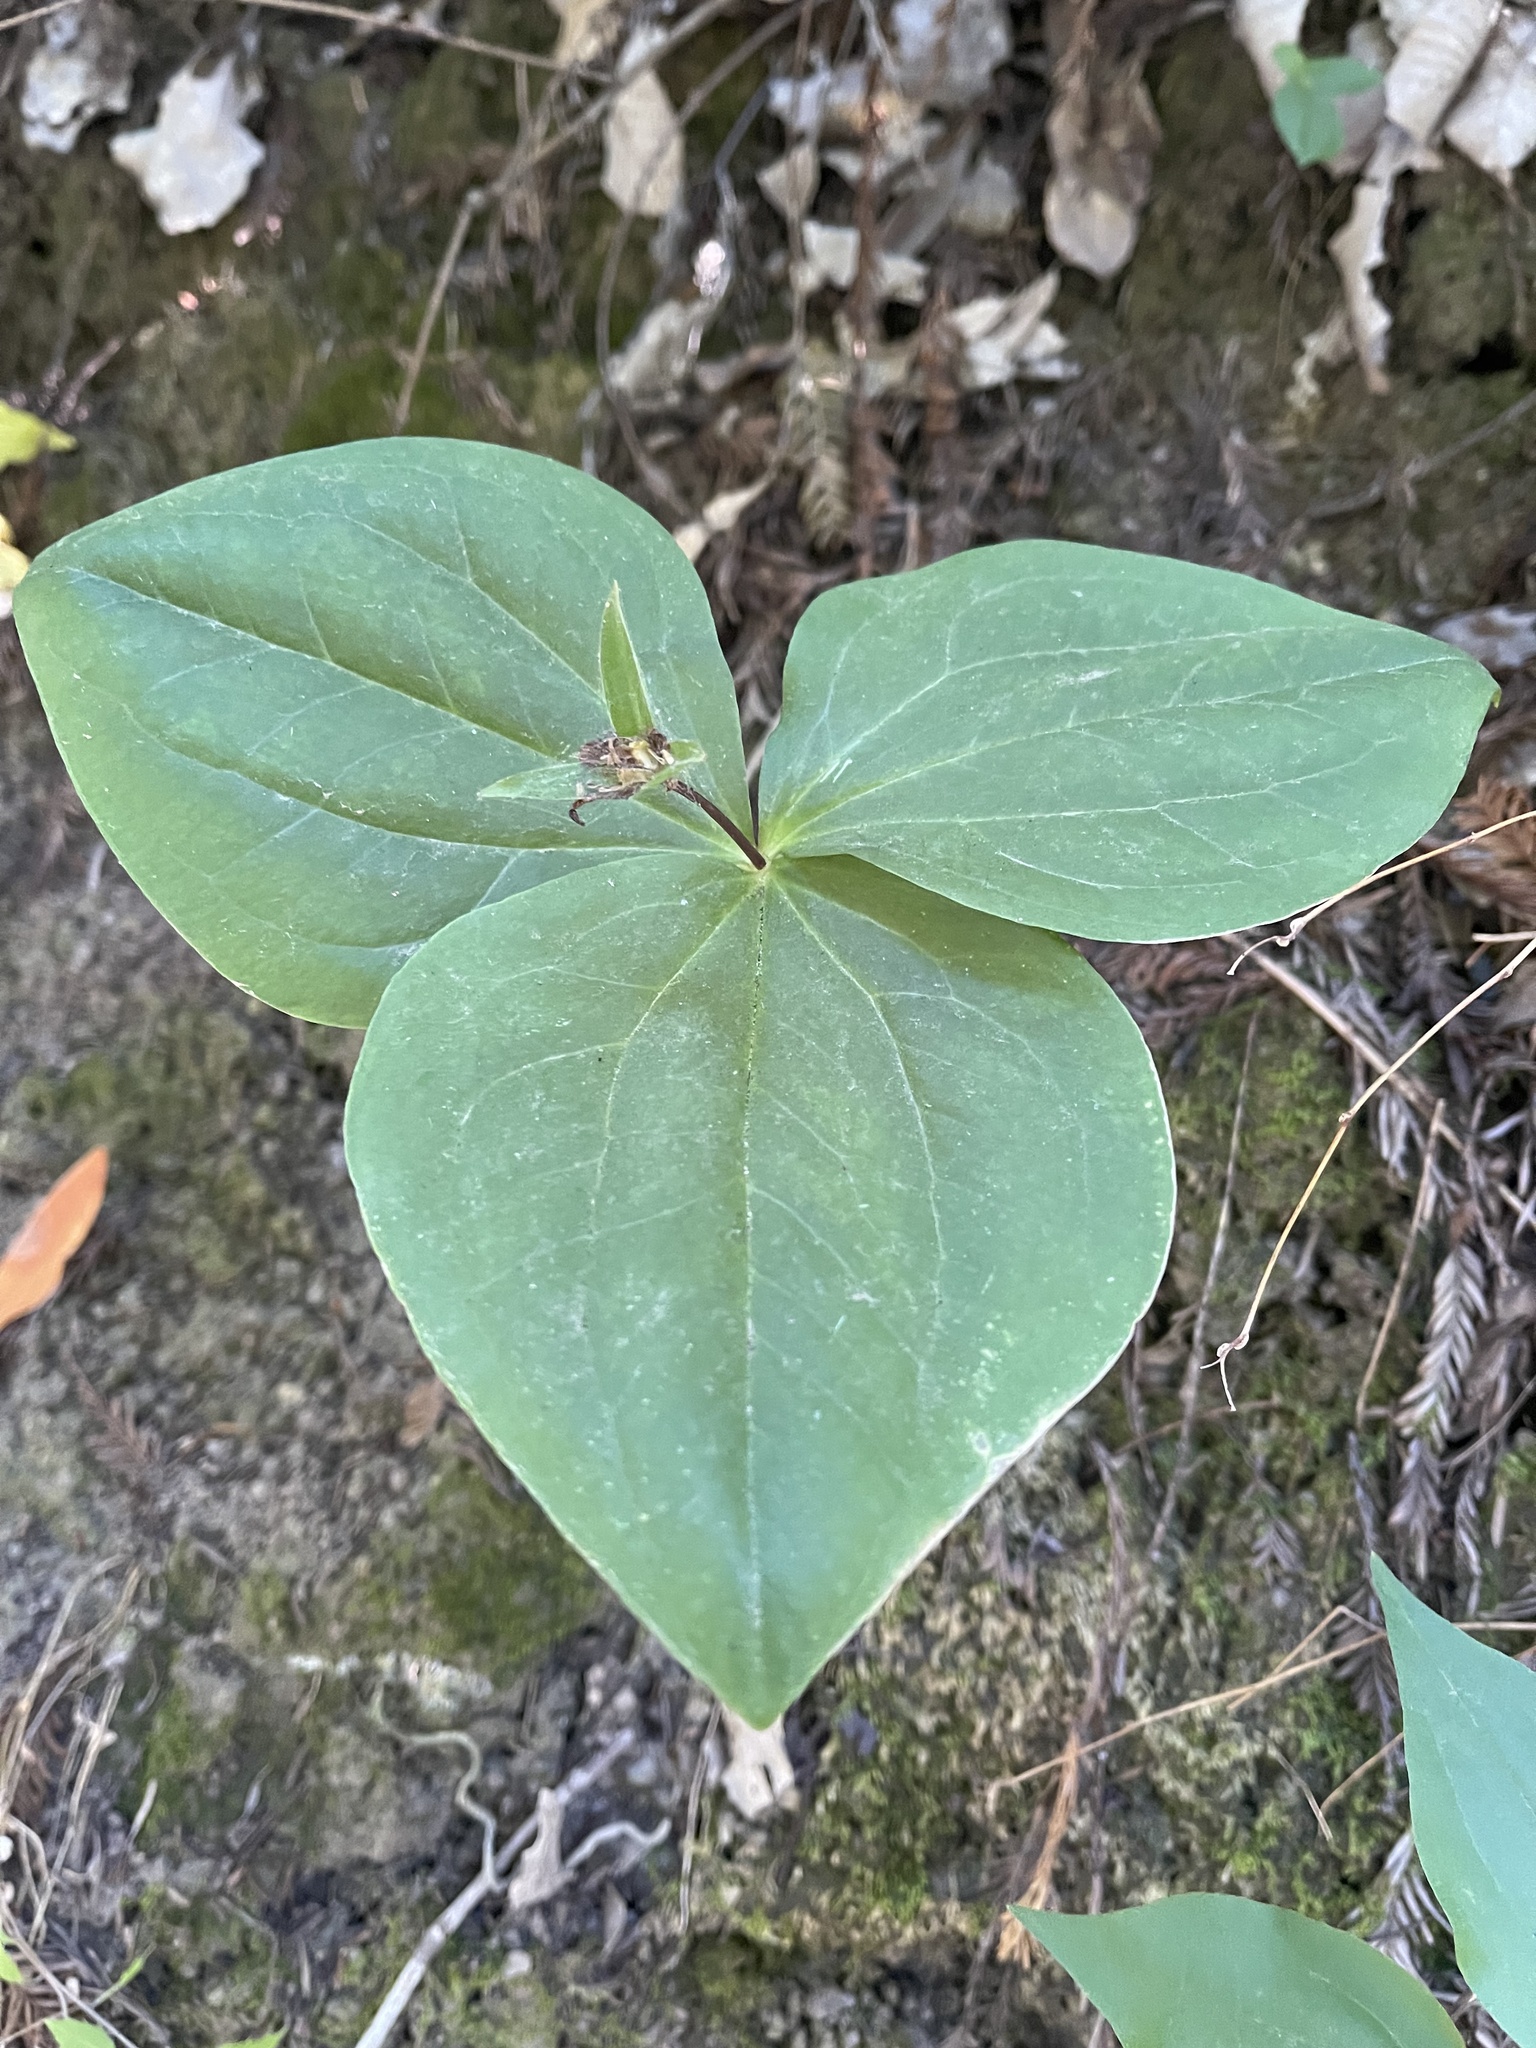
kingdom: Plantae
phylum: Tracheophyta
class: Liliopsida
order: Liliales
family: Melanthiaceae
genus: Trillium
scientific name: Trillium ovatum
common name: Pacific trillium
